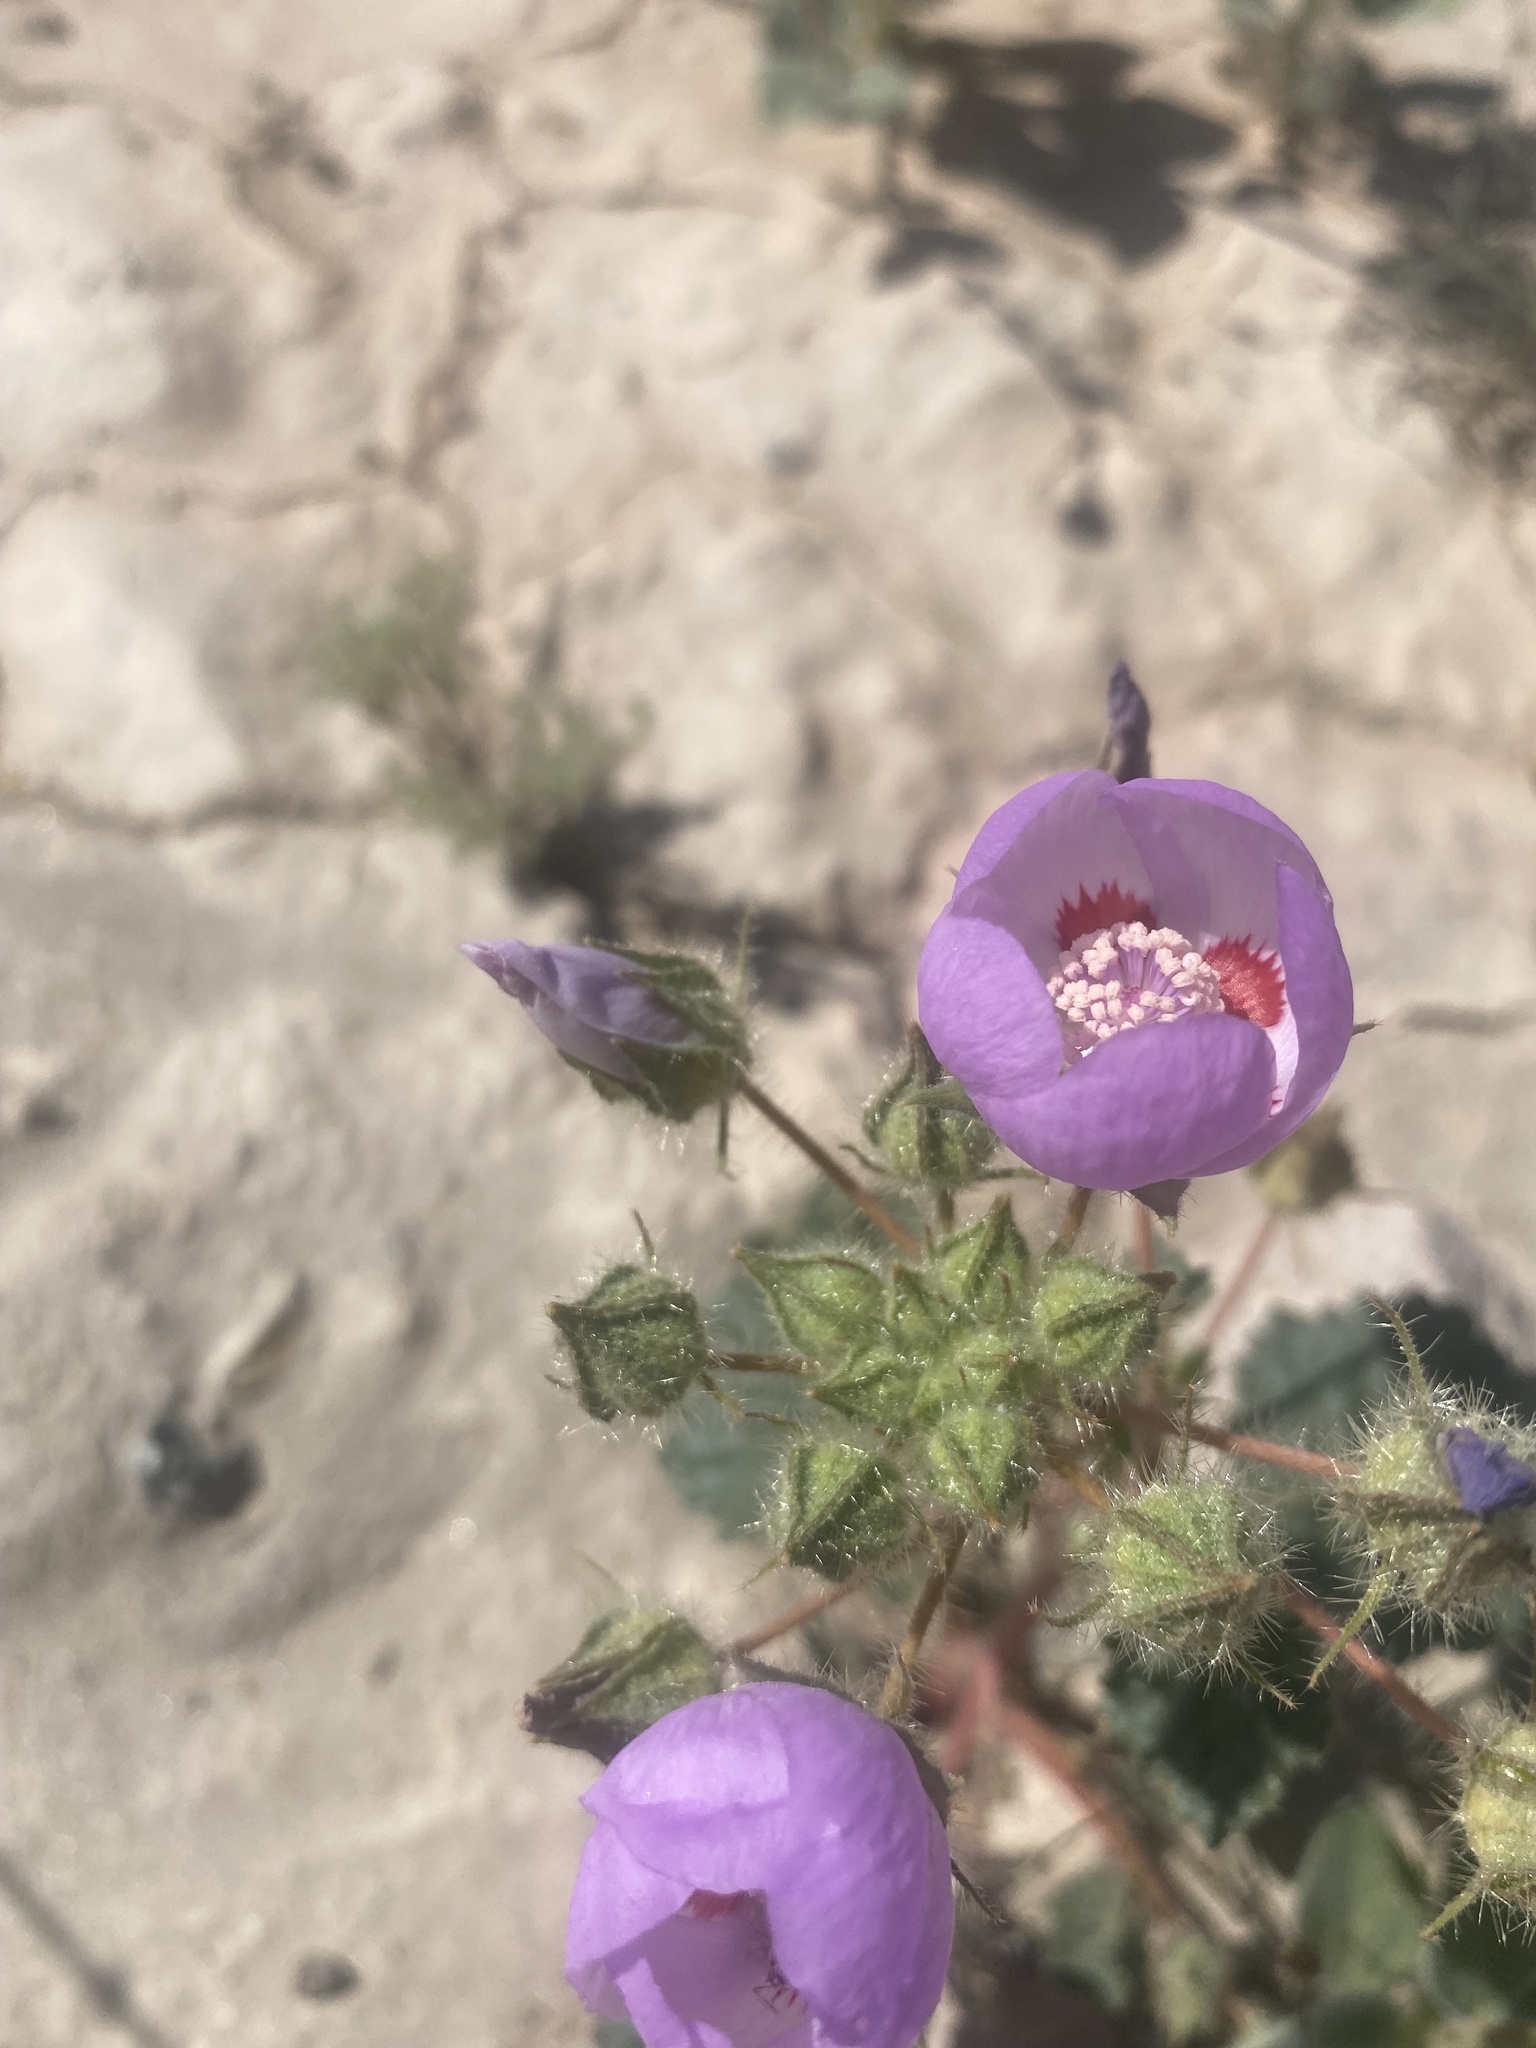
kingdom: Plantae
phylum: Tracheophyta
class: Magnoliopsida
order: Malvales
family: Malvaceae
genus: Eremalche
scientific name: Eremalche rotundifolia
